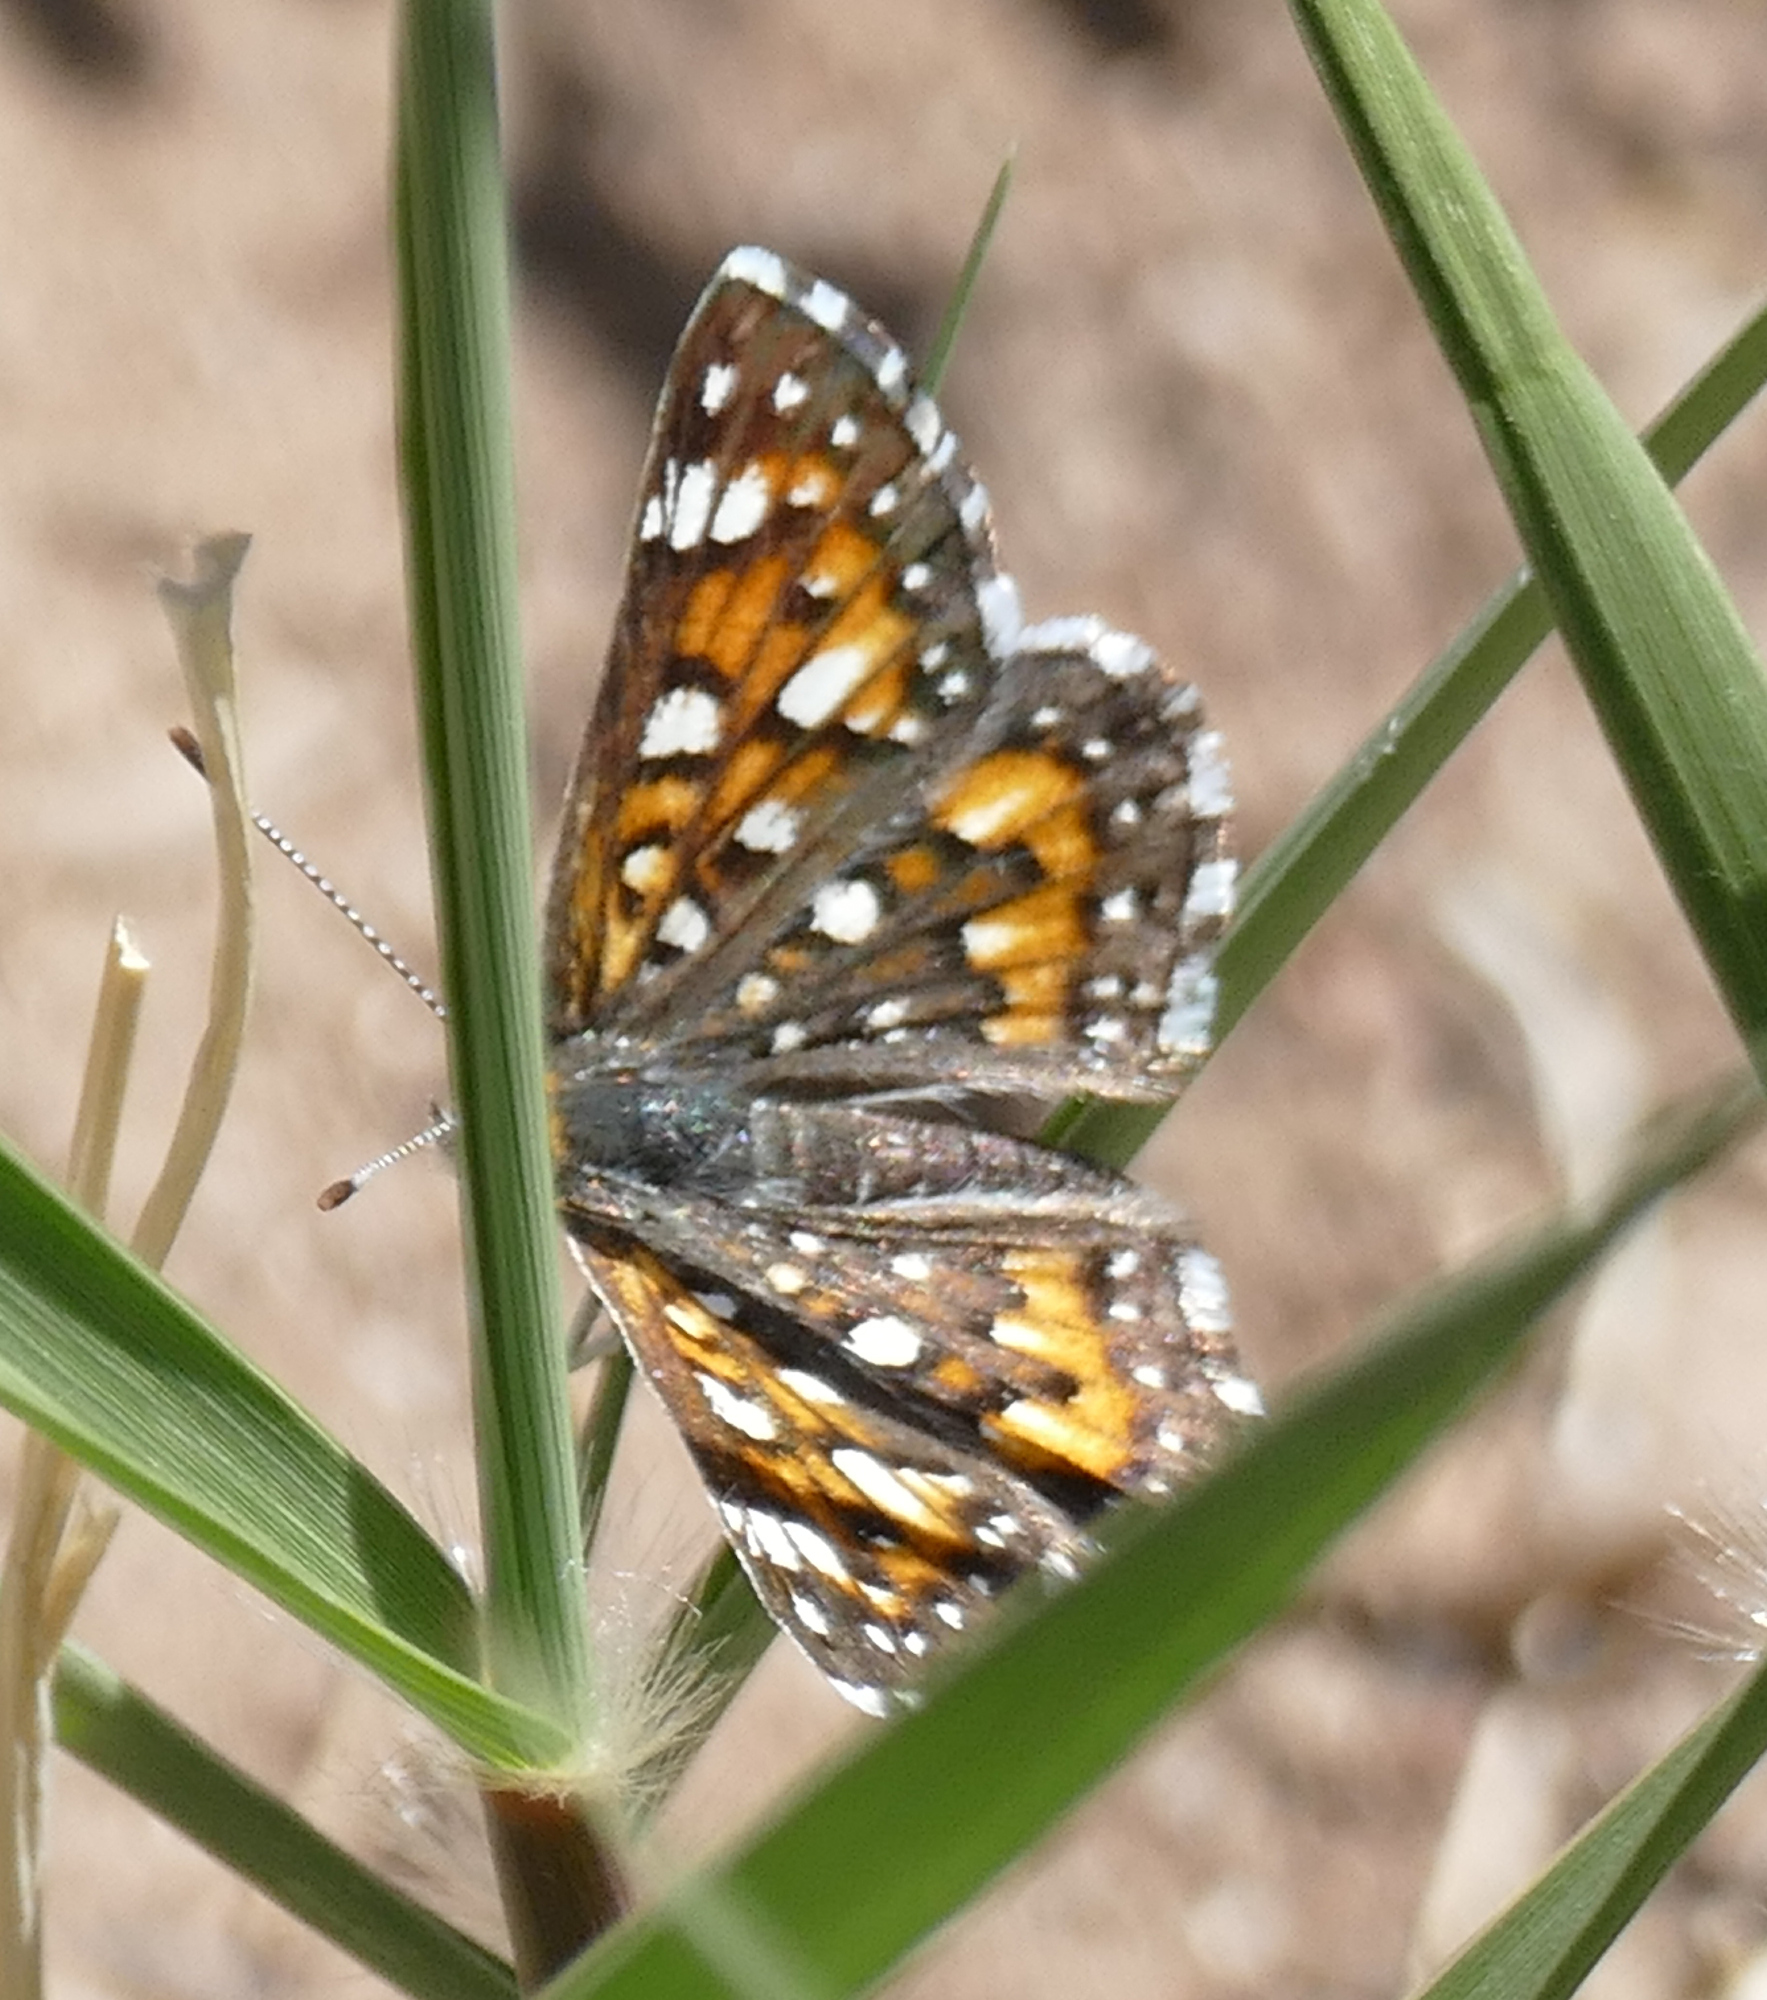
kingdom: Animalia
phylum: Arthropoda
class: Insecta
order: Lepidoptera
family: Riodinidae
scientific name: Riodinidae
